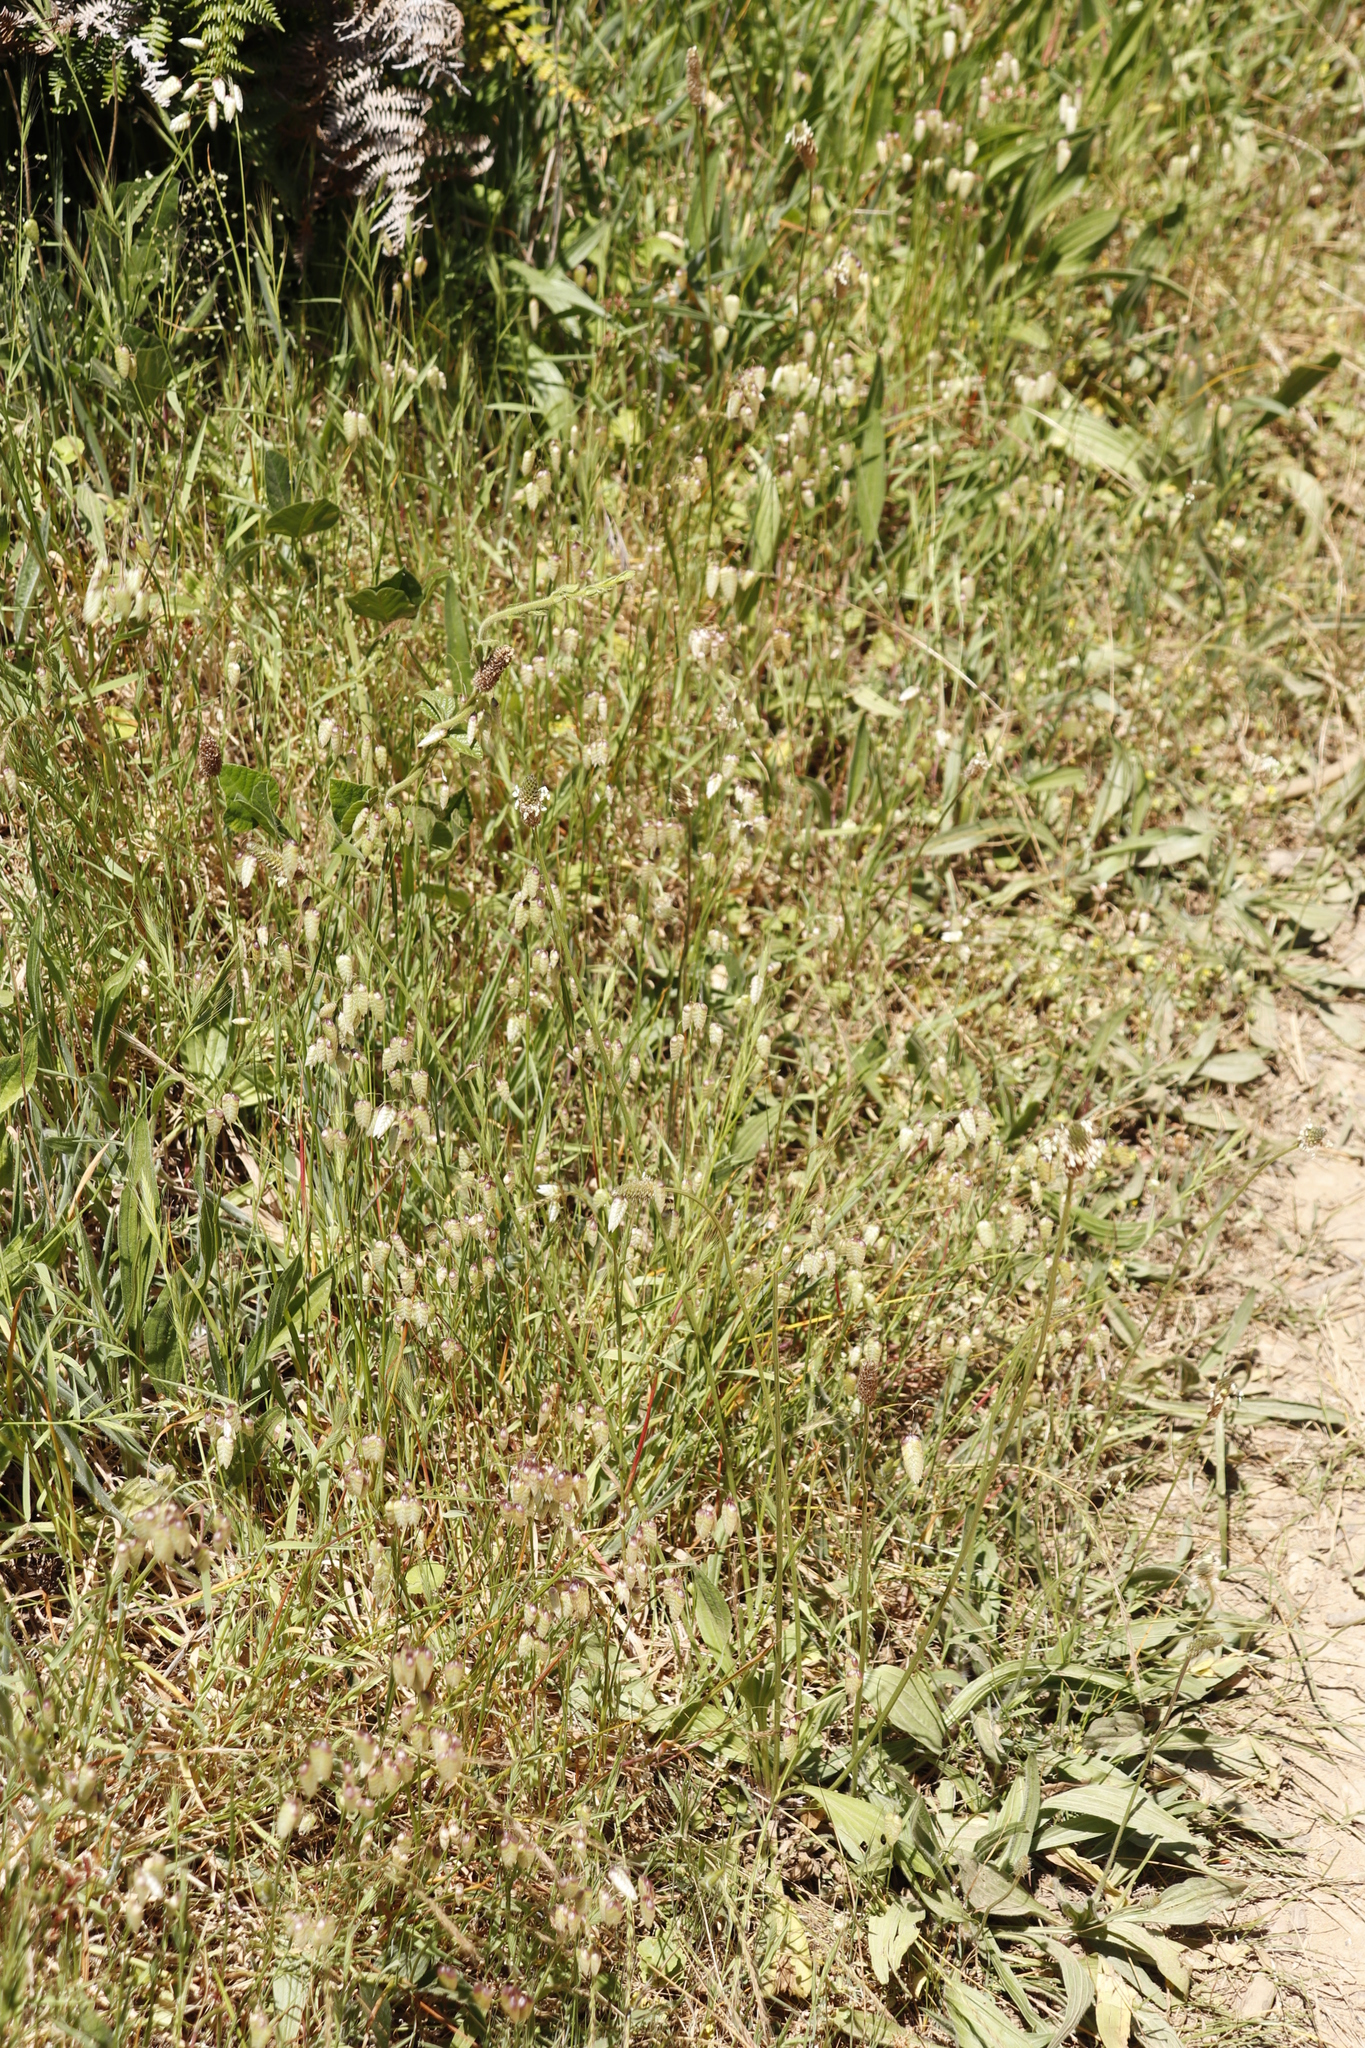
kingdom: Plantae
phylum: Tracheophyta
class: Liliopsida
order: Poales
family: Poaceae
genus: Briza
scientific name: Briza maxima
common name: Big quakinggrass
